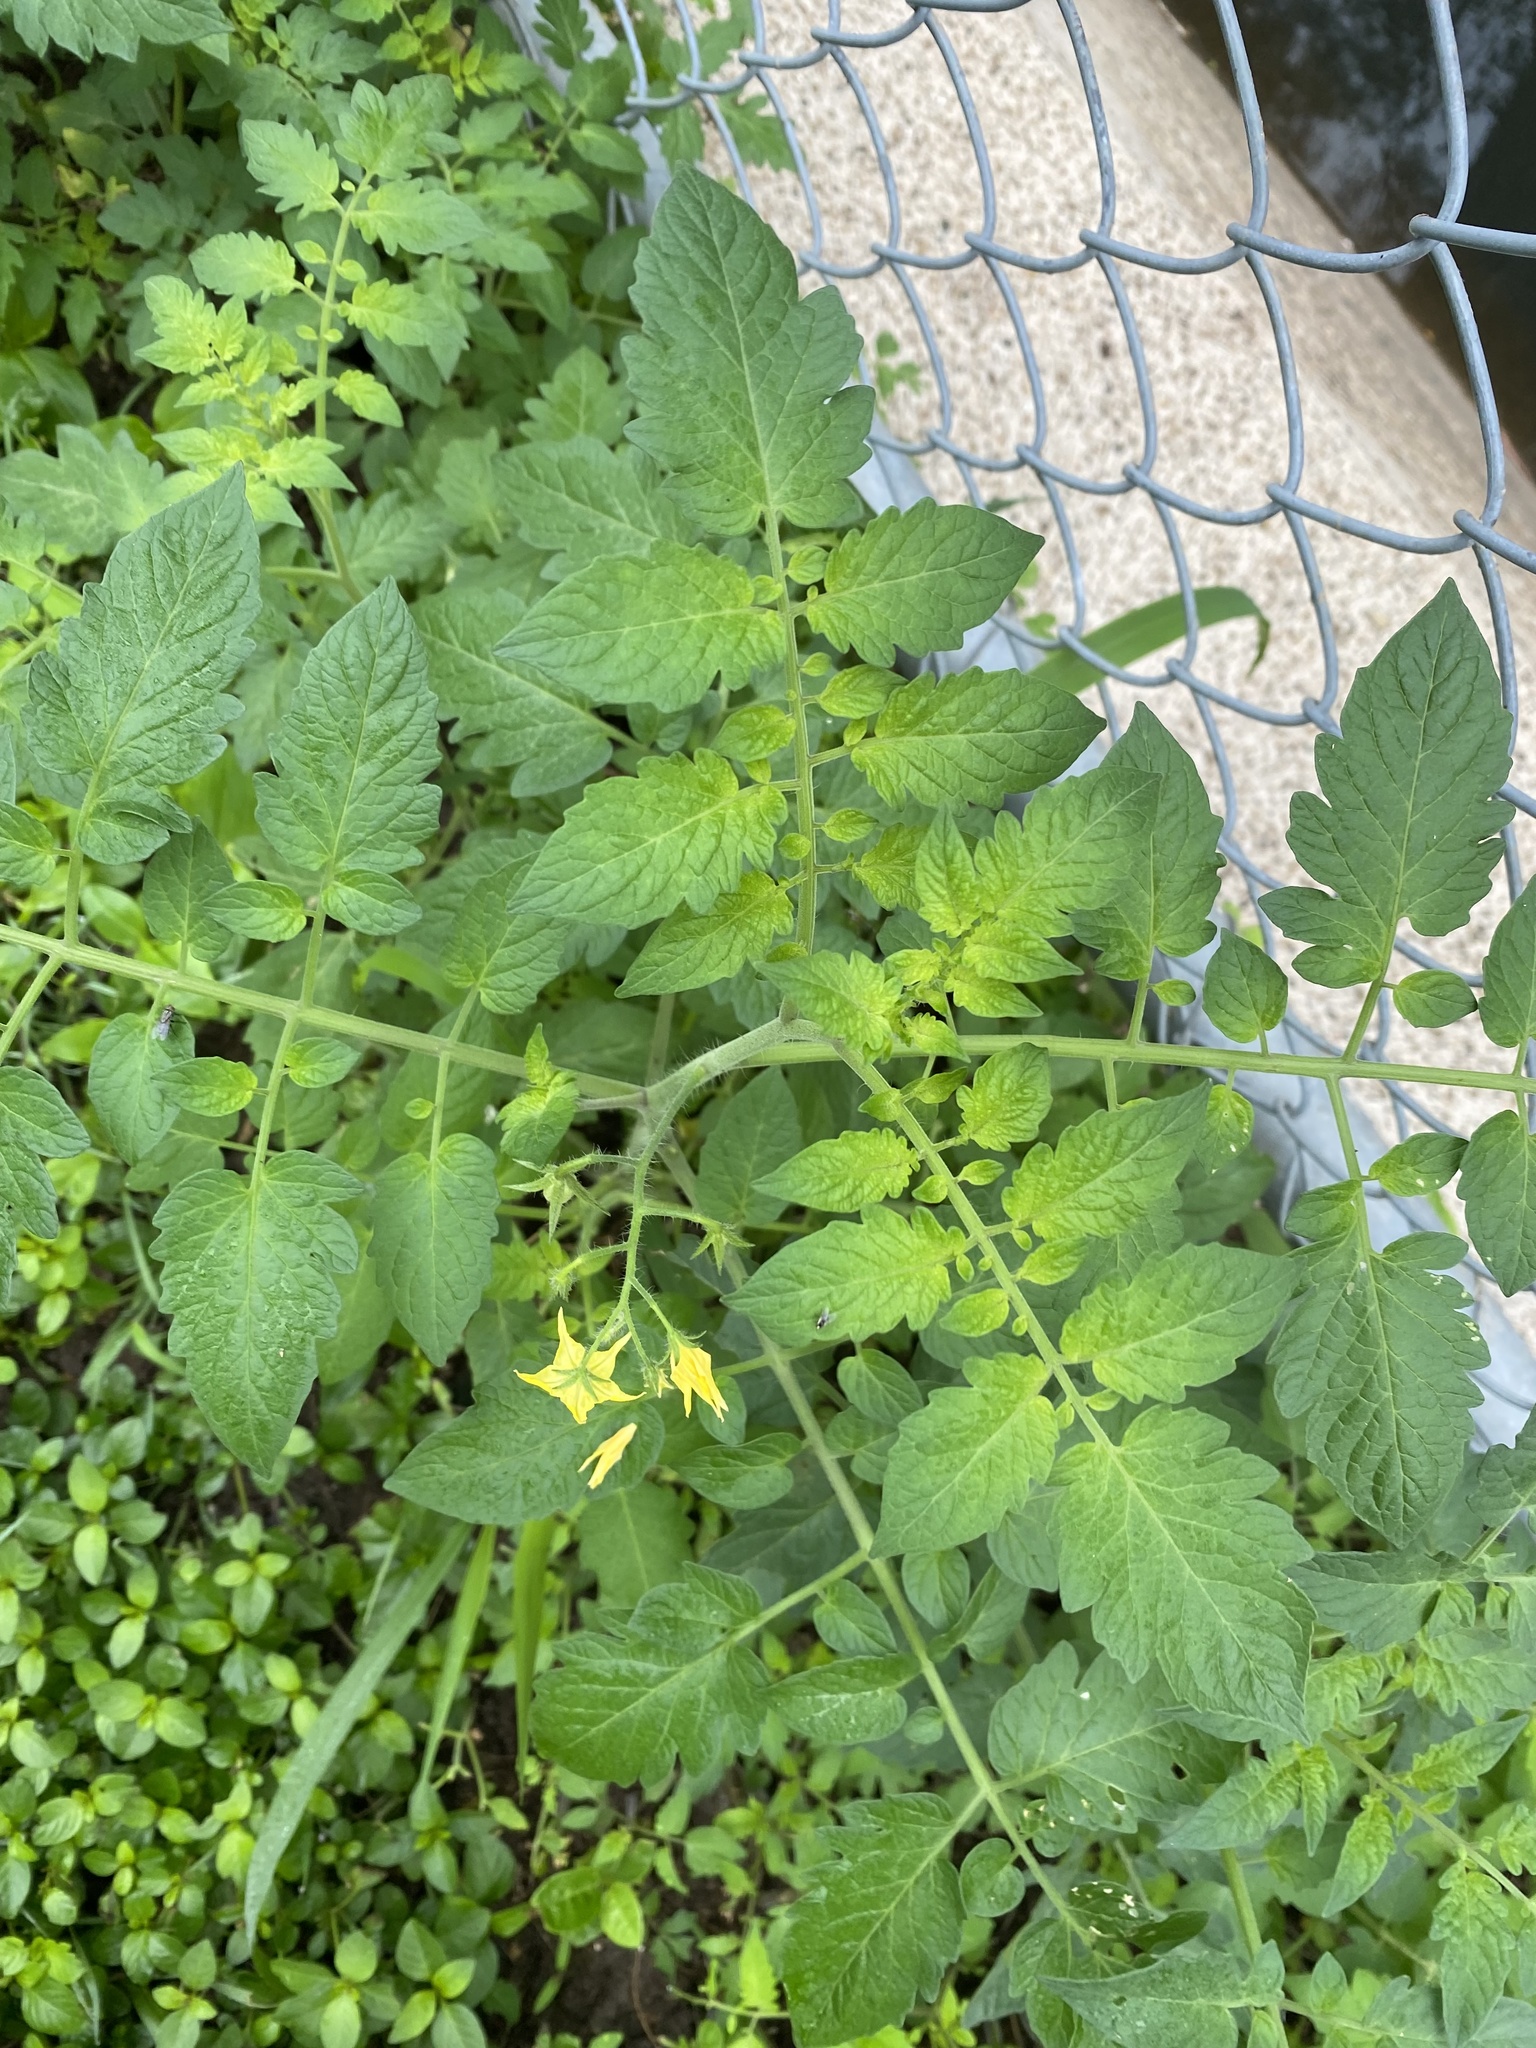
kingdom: Plantae
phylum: Tracheophyta
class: Magnoliopsida
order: Solanales
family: Solanaceae
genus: Solanum
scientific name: Solanum lycopersicum
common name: Garden tomato
